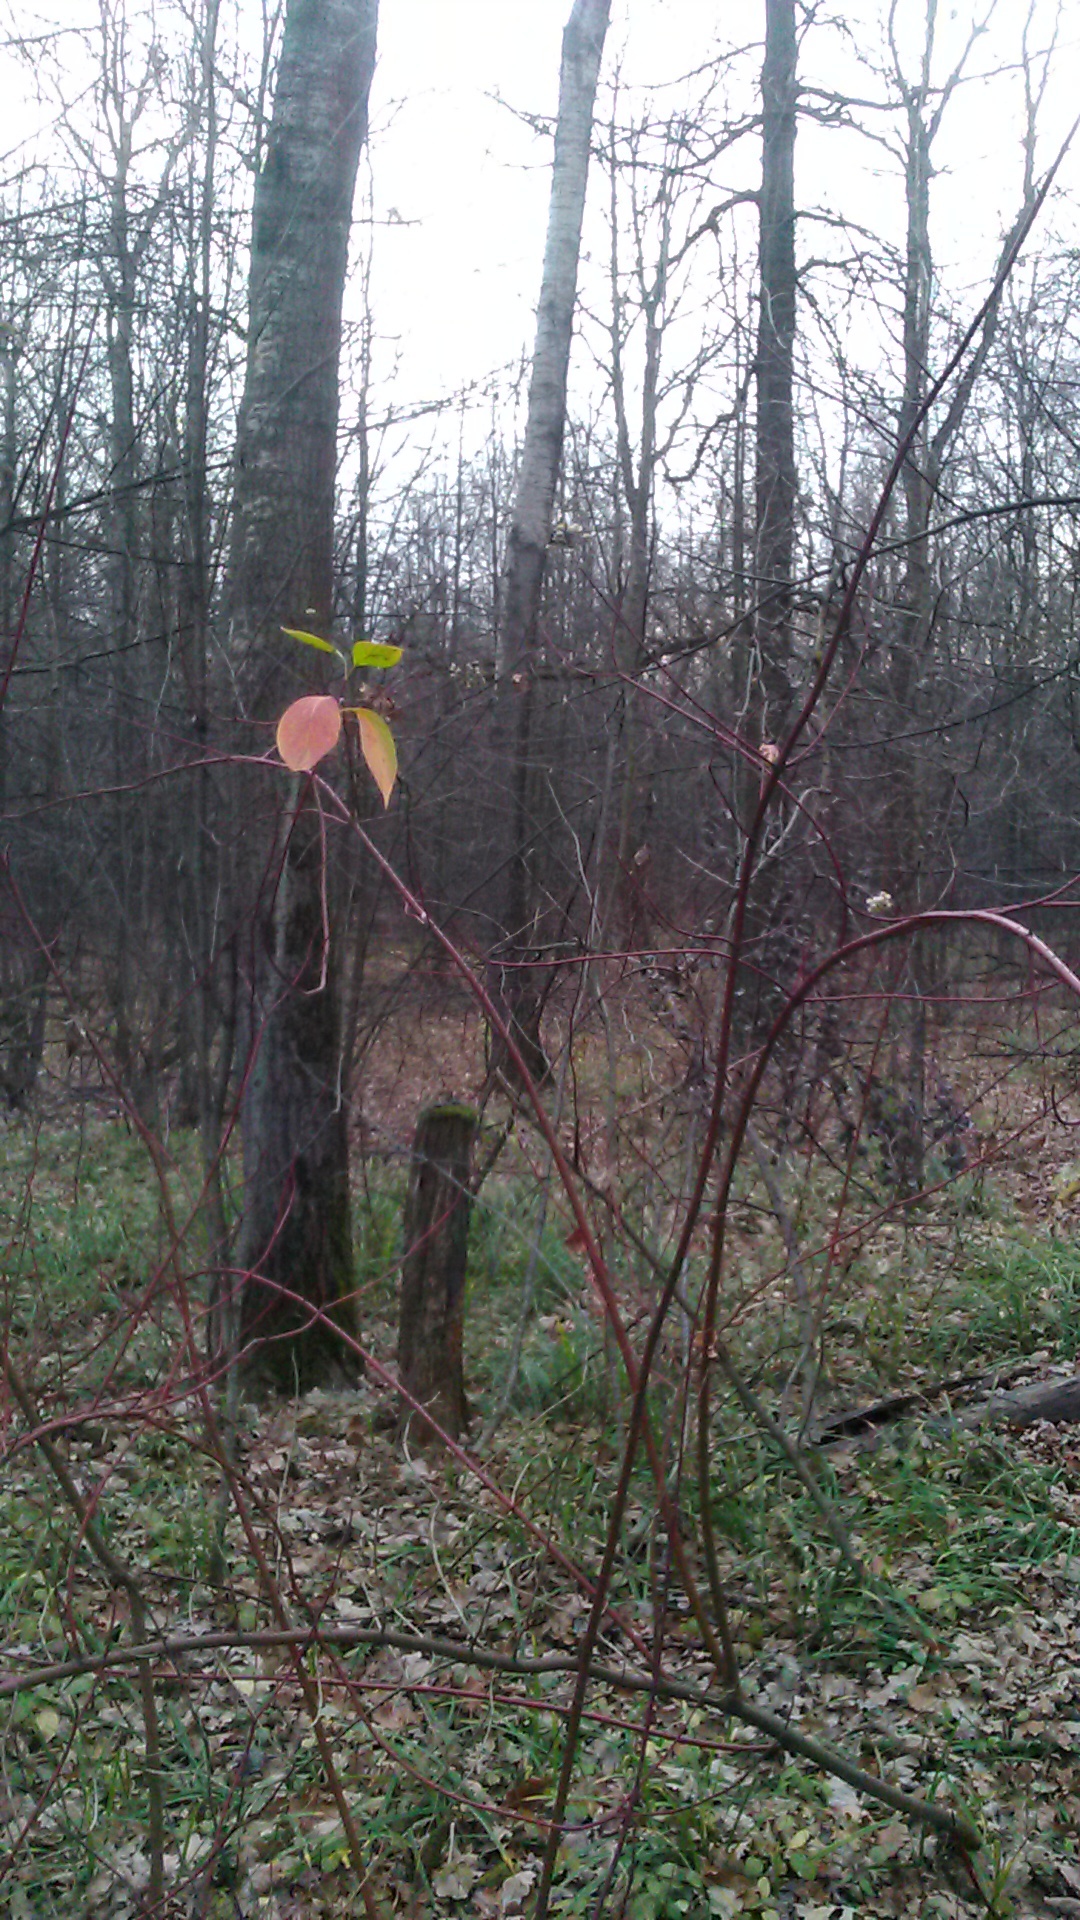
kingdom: Plantae
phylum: Tracheophyta
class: Magnoliopsida
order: Cornales
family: Cornaceae
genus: Cornus
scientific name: Cornus sericea
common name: Red-osier dogwood
